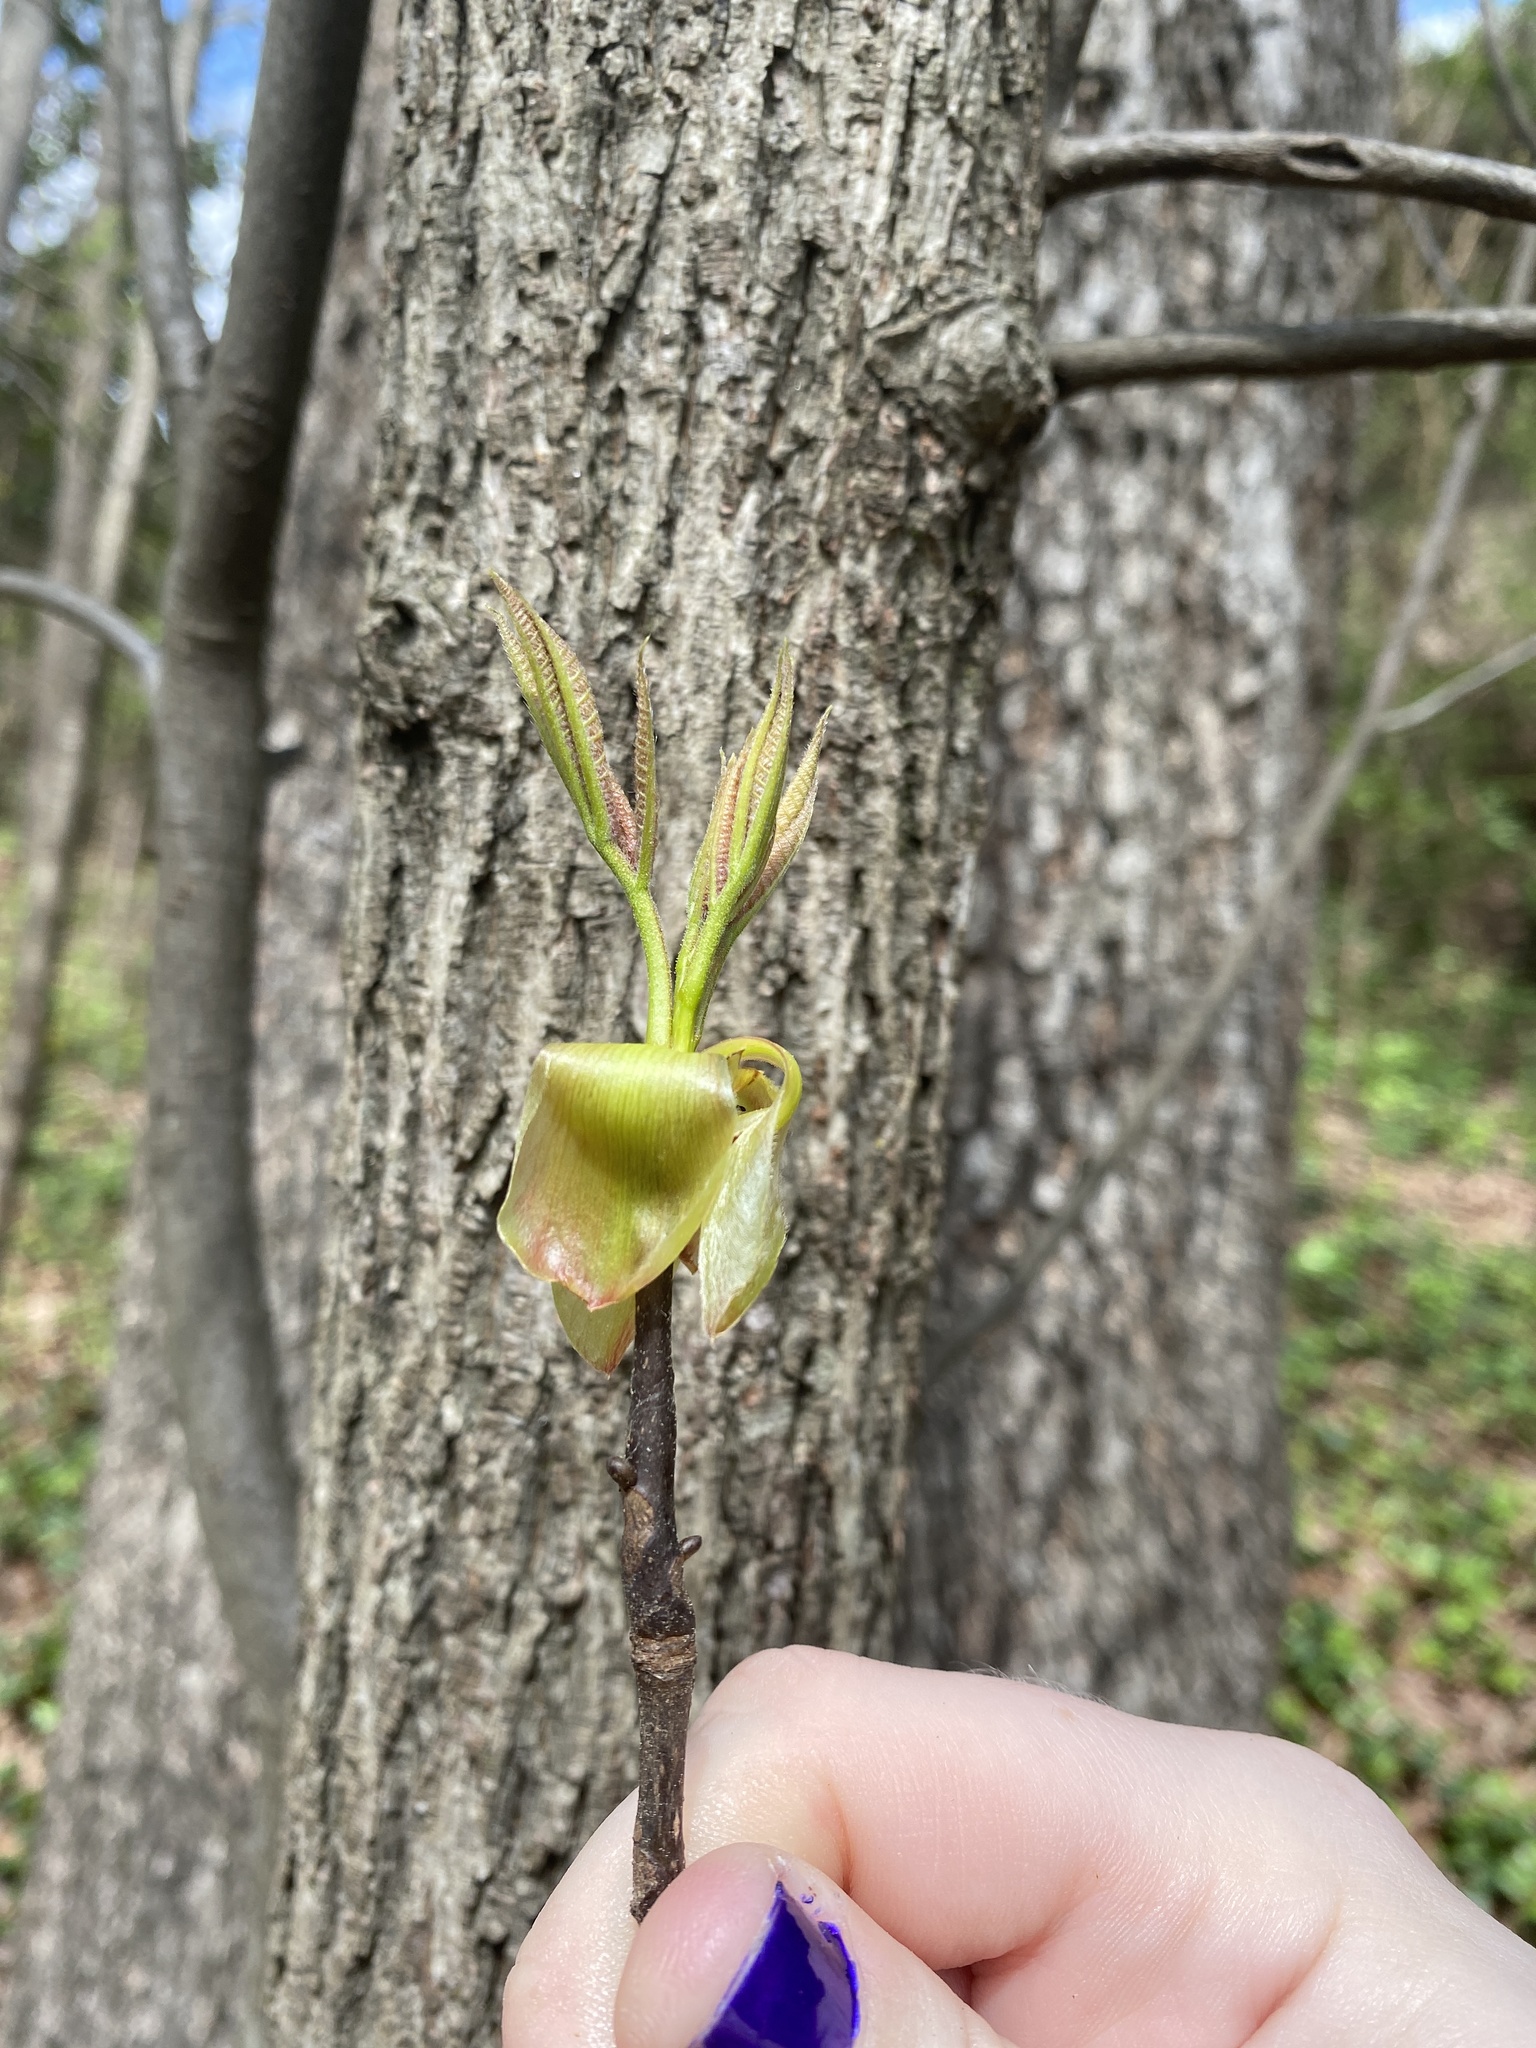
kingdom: Plantae
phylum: Tracheophyta
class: Magnoliopsida
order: Fagales
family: Juglandaceae
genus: Carya
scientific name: Carya ovata
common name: Shagbark hickory
